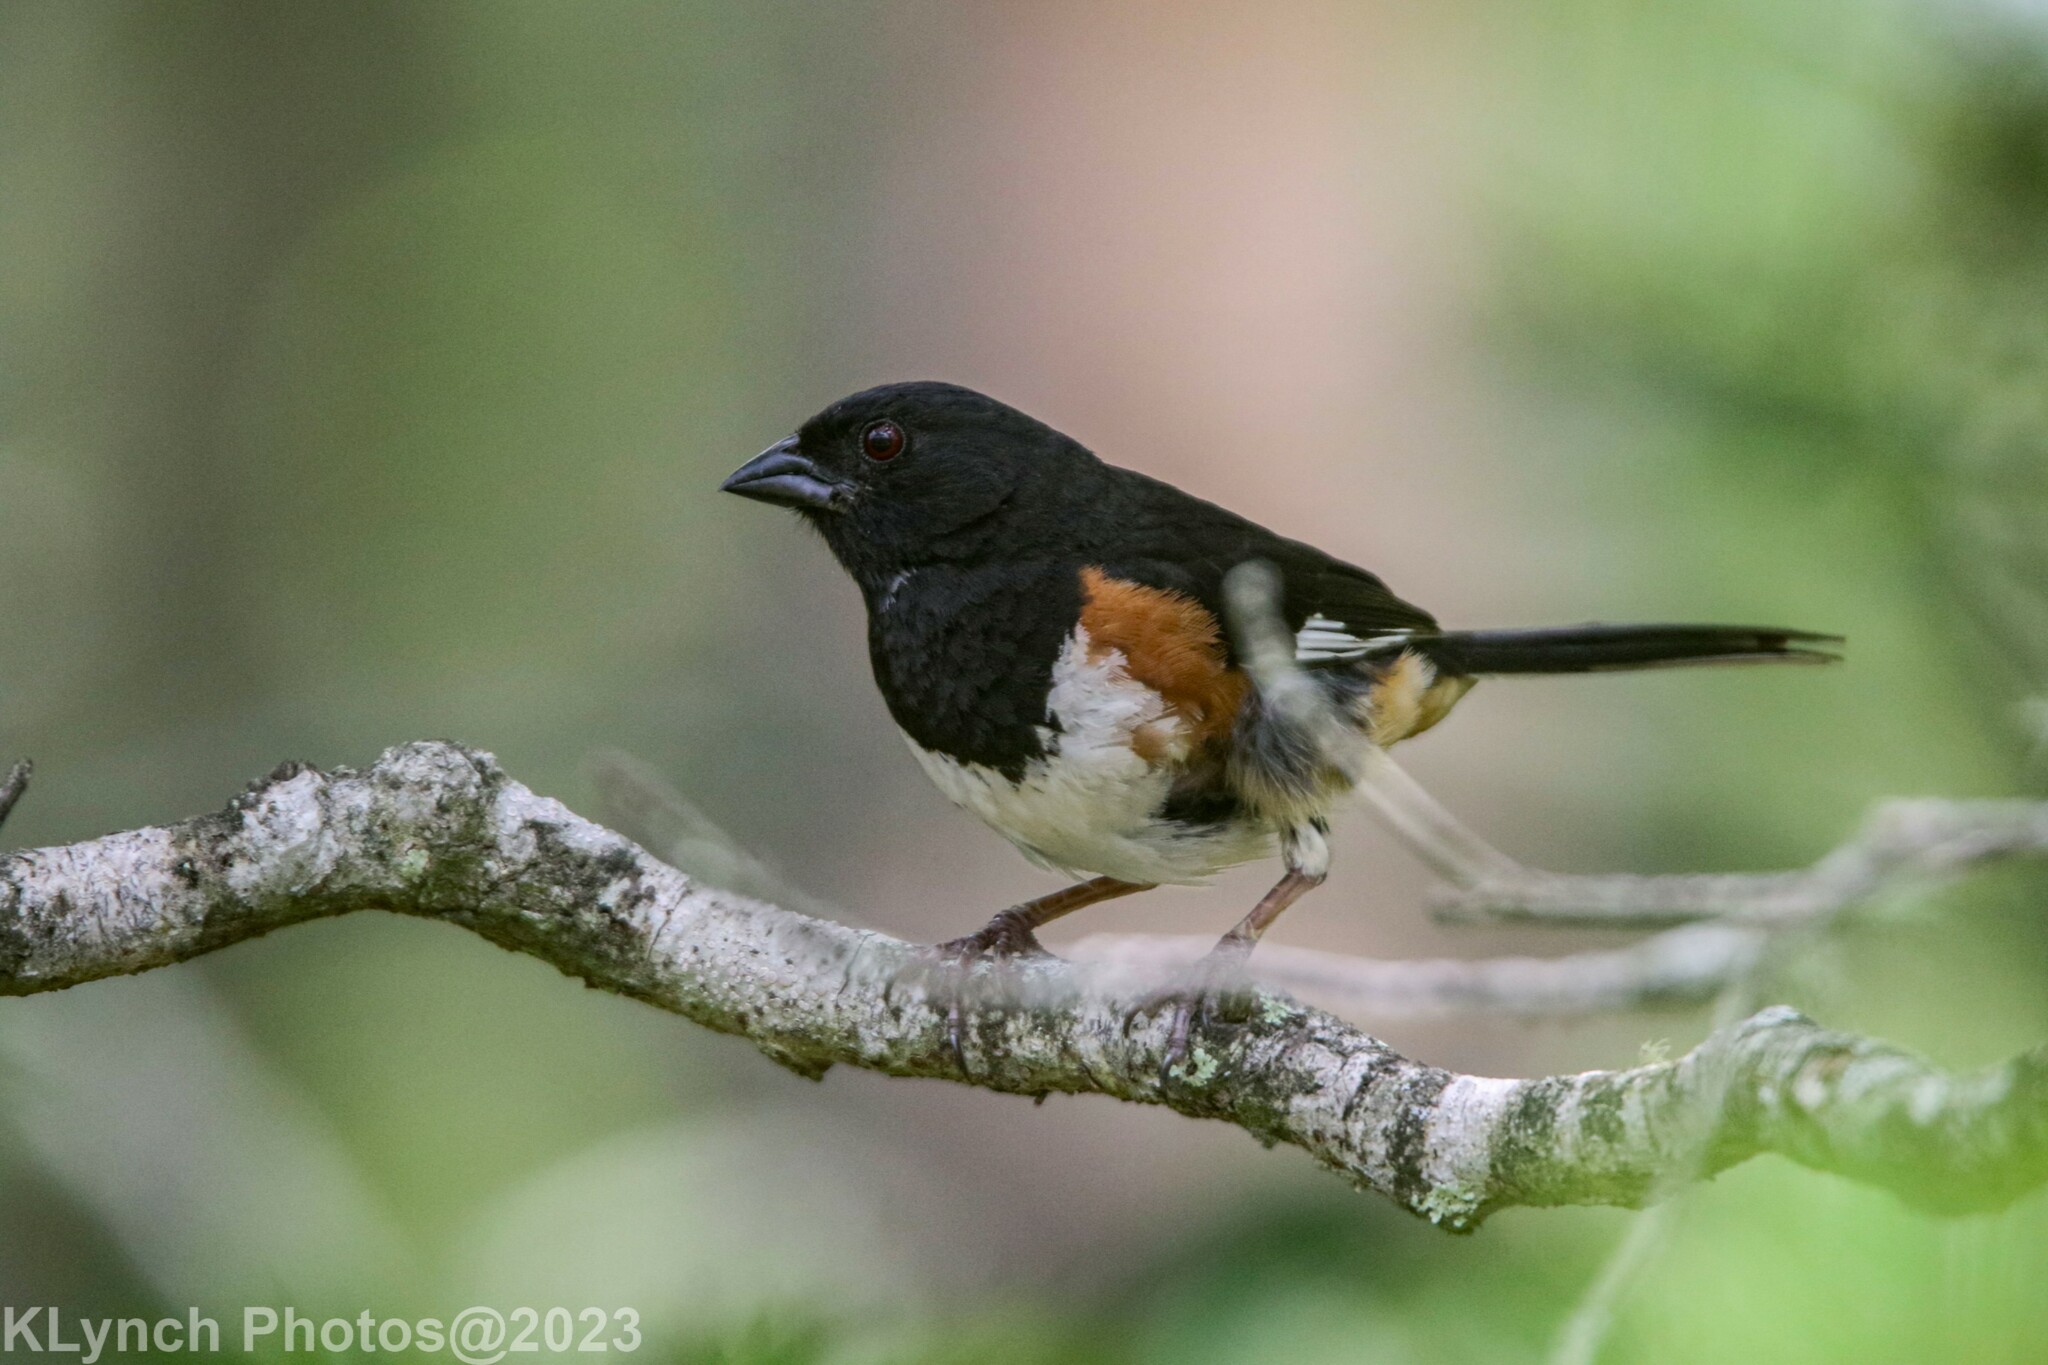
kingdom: Animalia
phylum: Chordata
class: Aves
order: Passeriformes
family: Passerellidae
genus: Pipilo
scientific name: Pipilo erythrophthalmus
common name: Eastern towhee
